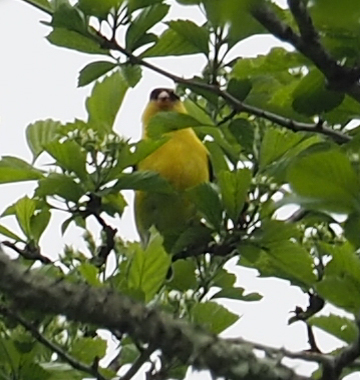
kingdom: Animalia
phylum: Chordata
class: Aves
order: Passeriformes
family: Fringillidae
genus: Spinus
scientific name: Spinus tristis
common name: American goldfinch
